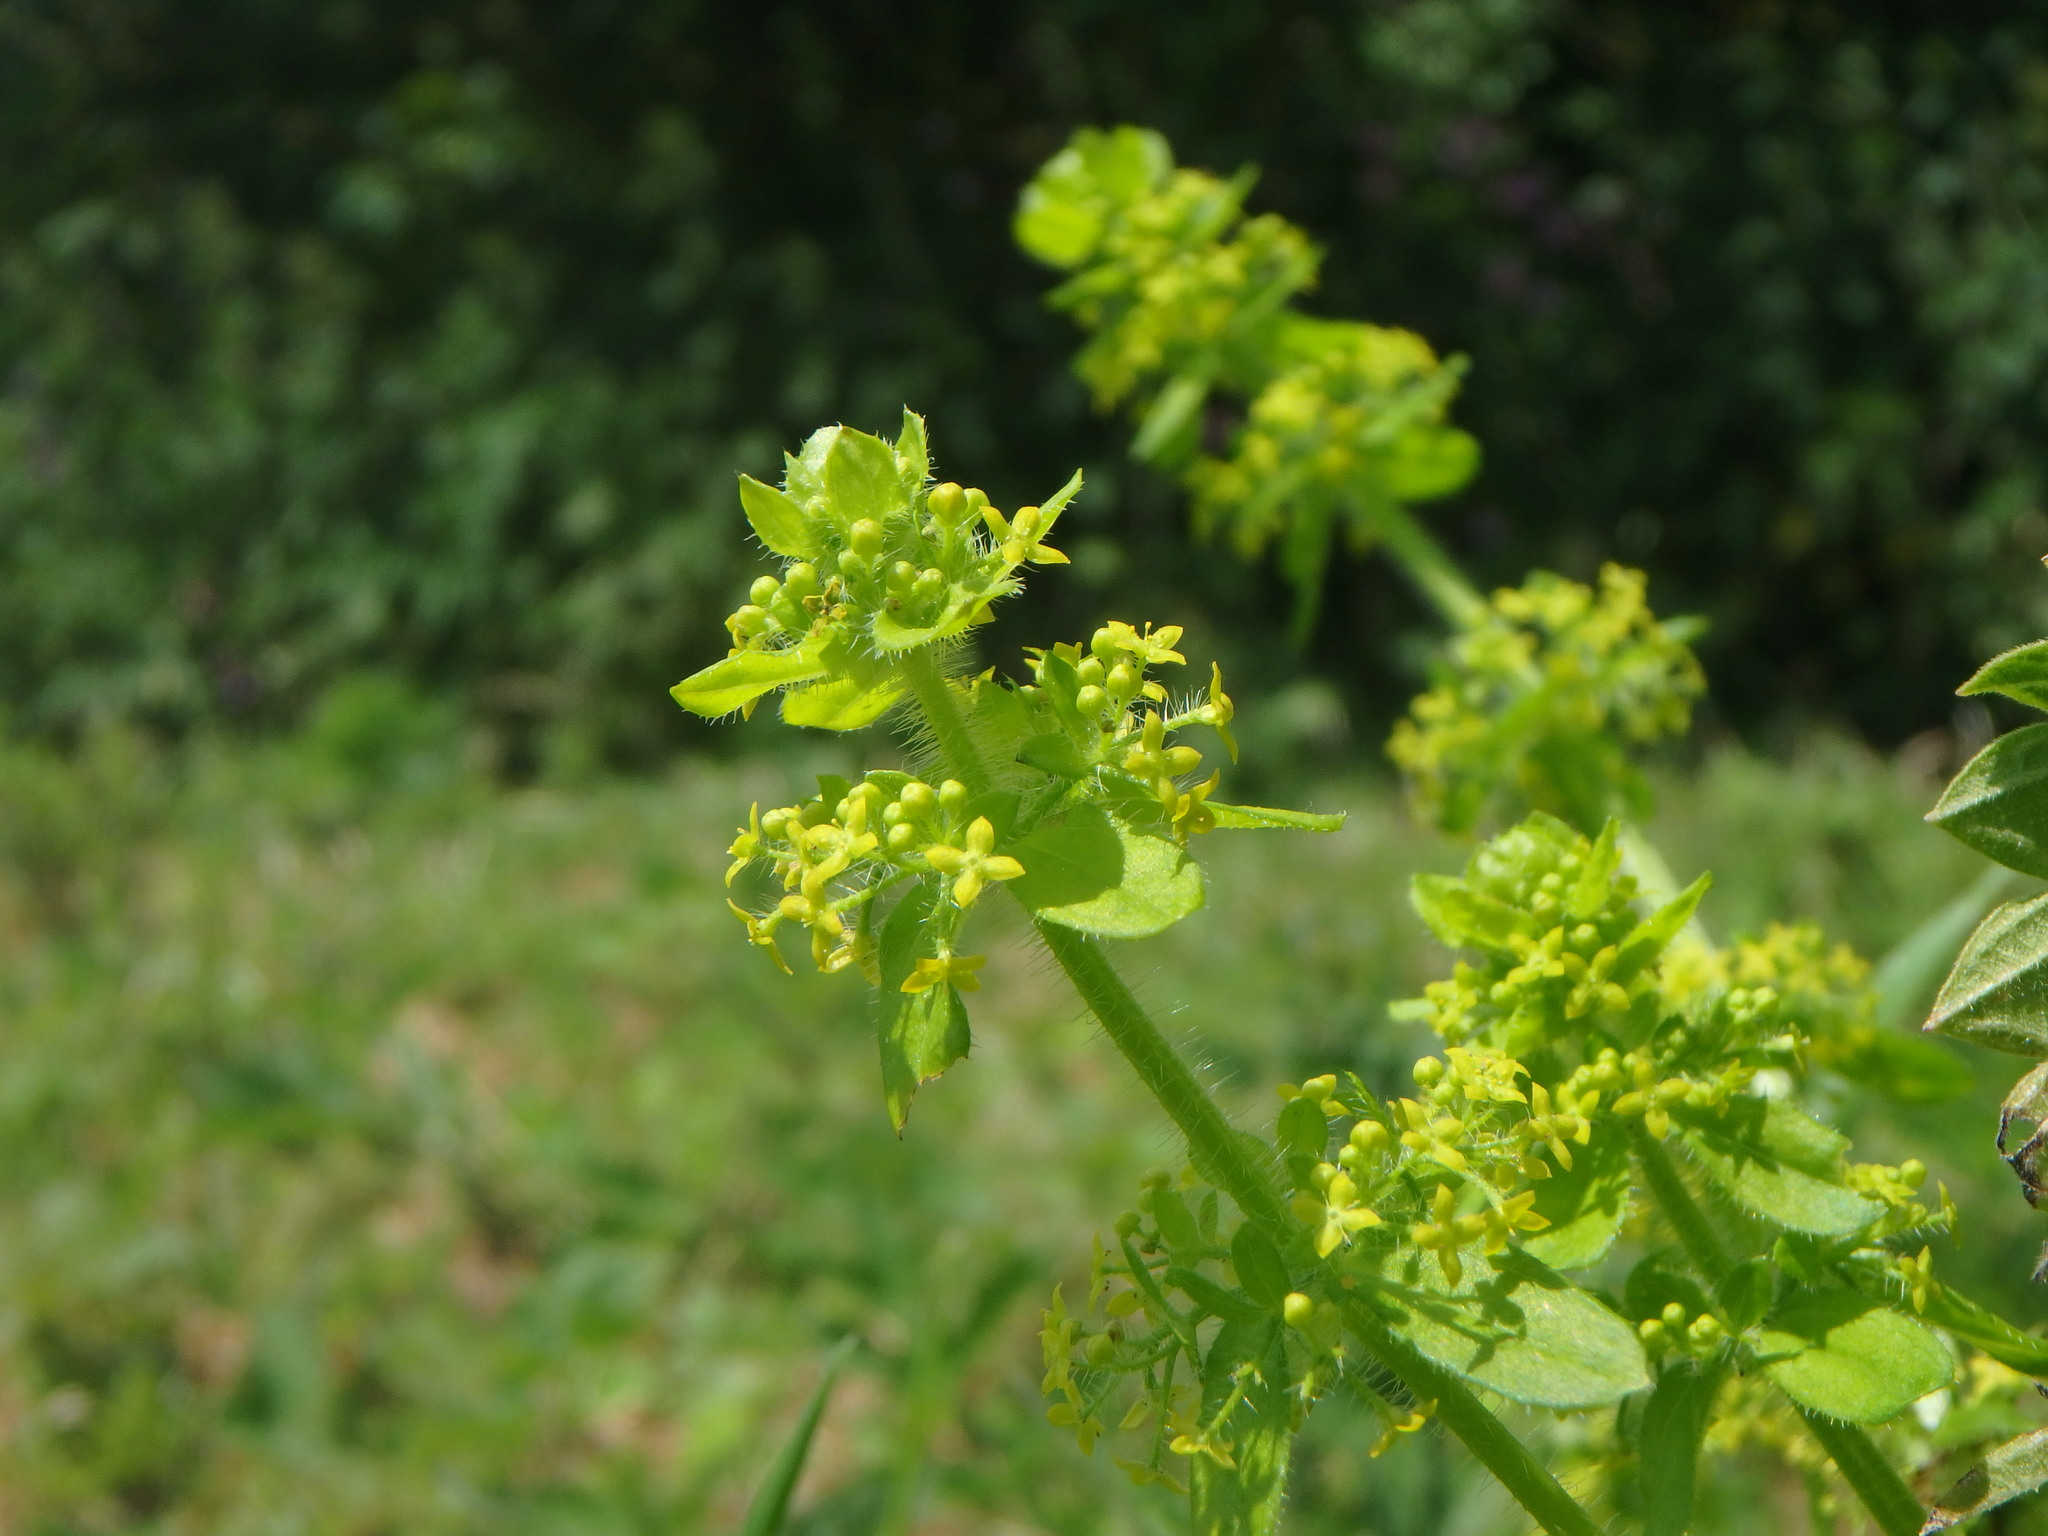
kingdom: Plantae
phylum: Tracheophyta
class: Magnoliopsida
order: Gentianales
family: Rubiaceae
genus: Cruciata
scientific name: Cruciata laevipes
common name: Crosswort
